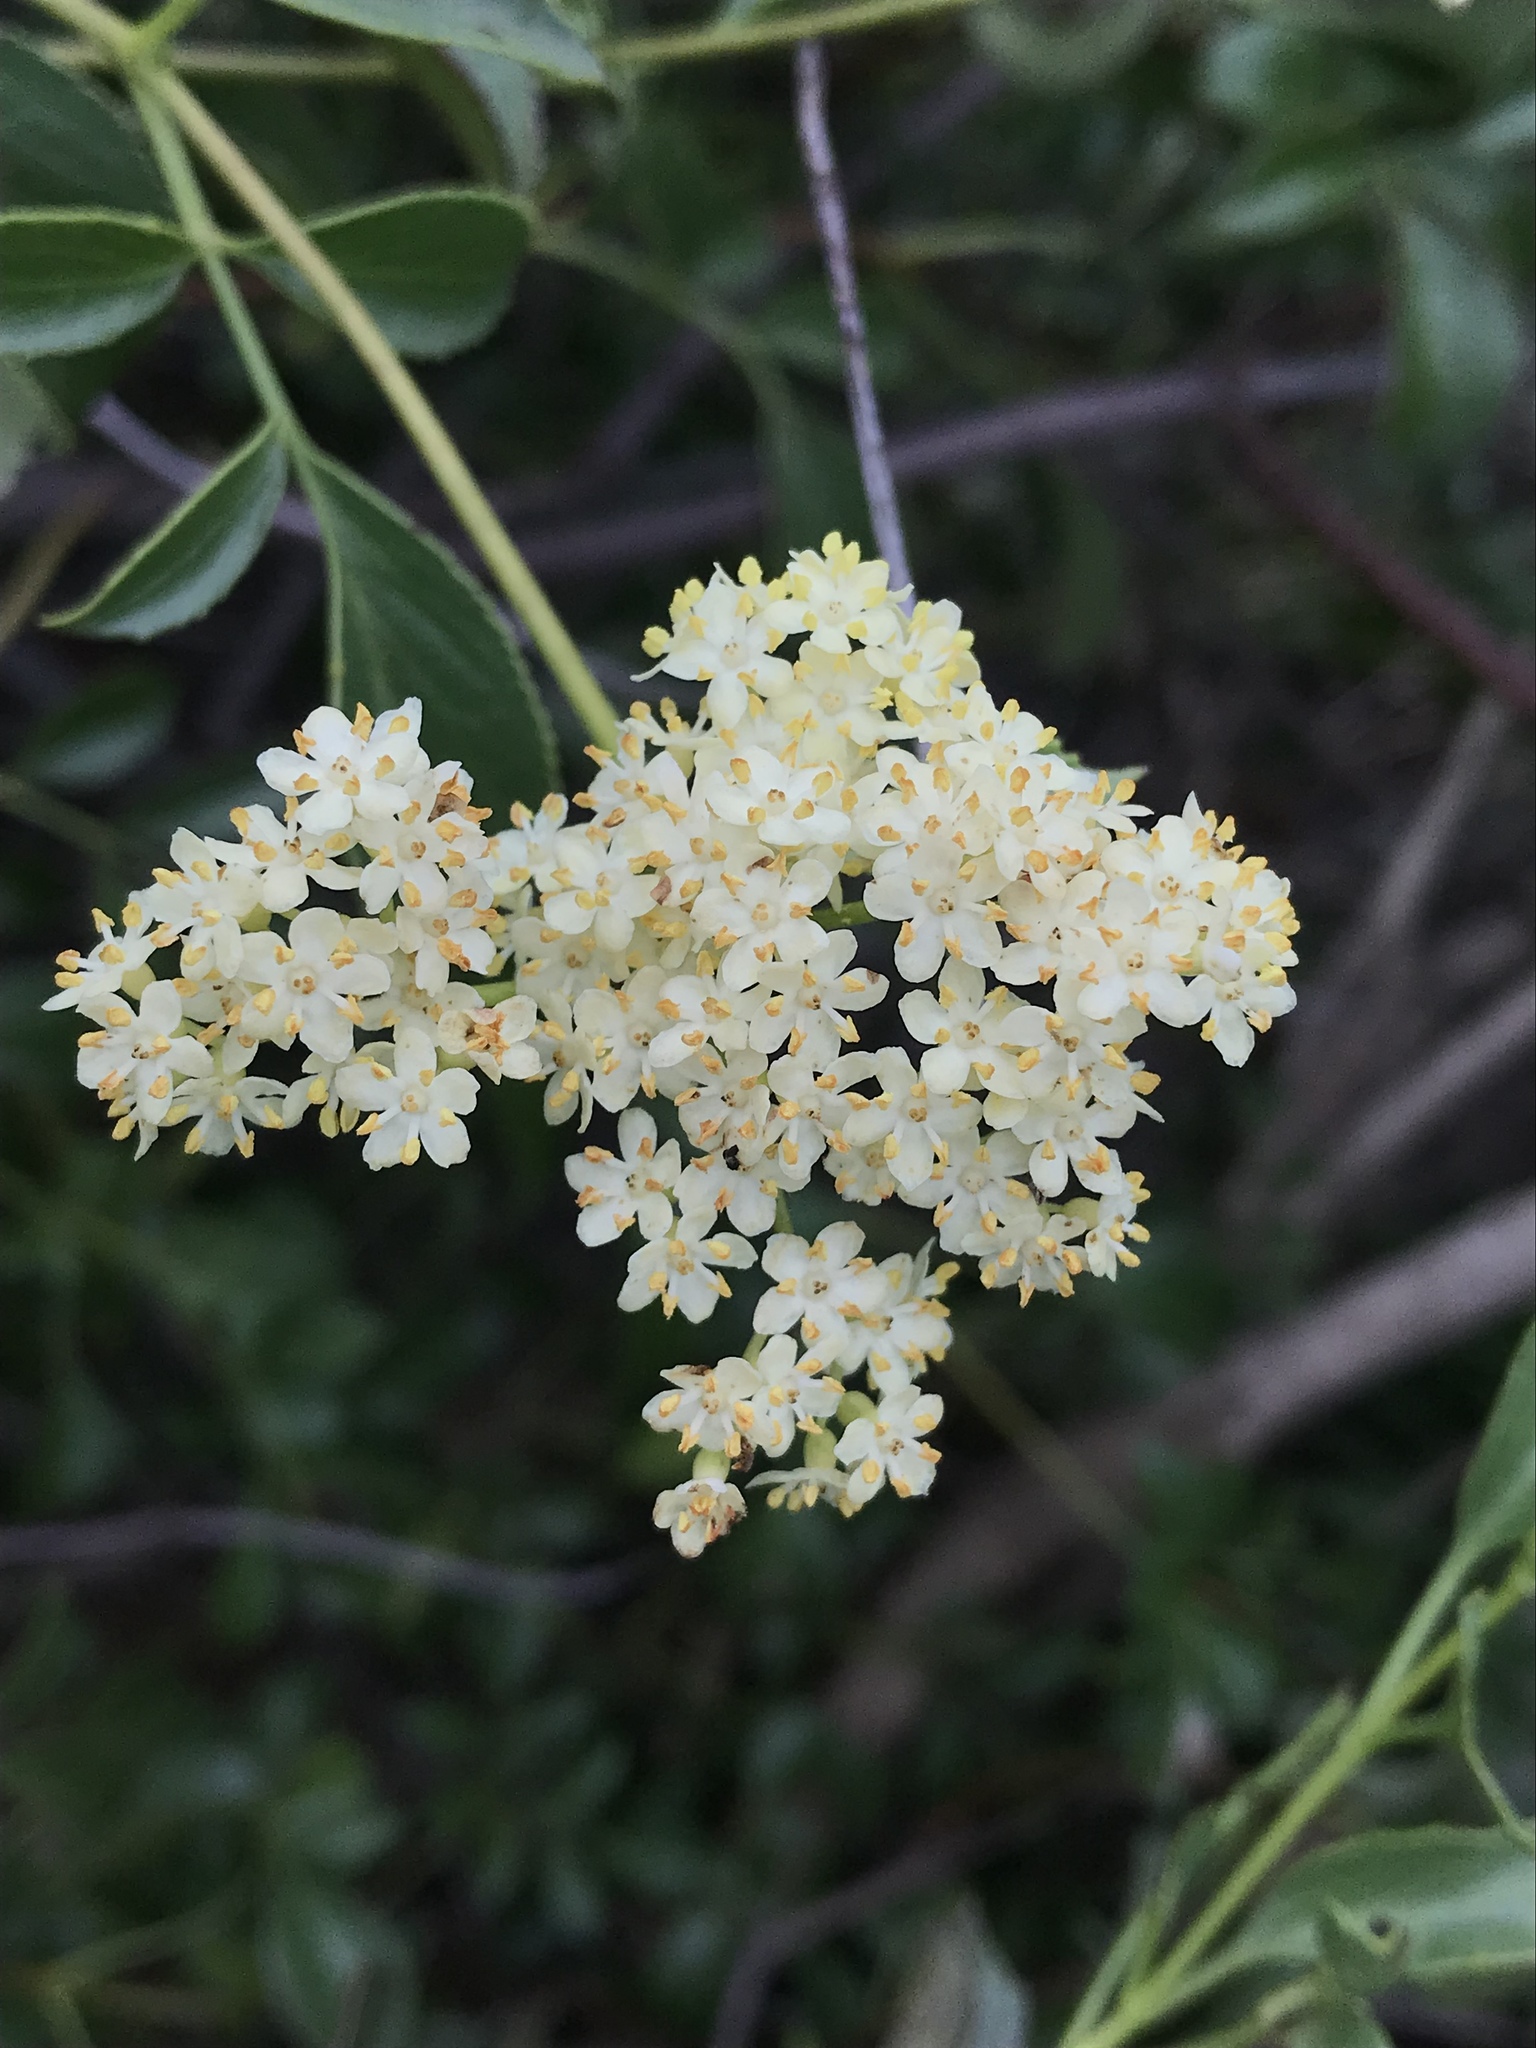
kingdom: Plantae
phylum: Tracheophyta
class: Magnoliopsida
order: Dipsacales
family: Viburnaceae
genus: Sambucus
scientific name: Sambucus cerulea
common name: Blue elder
